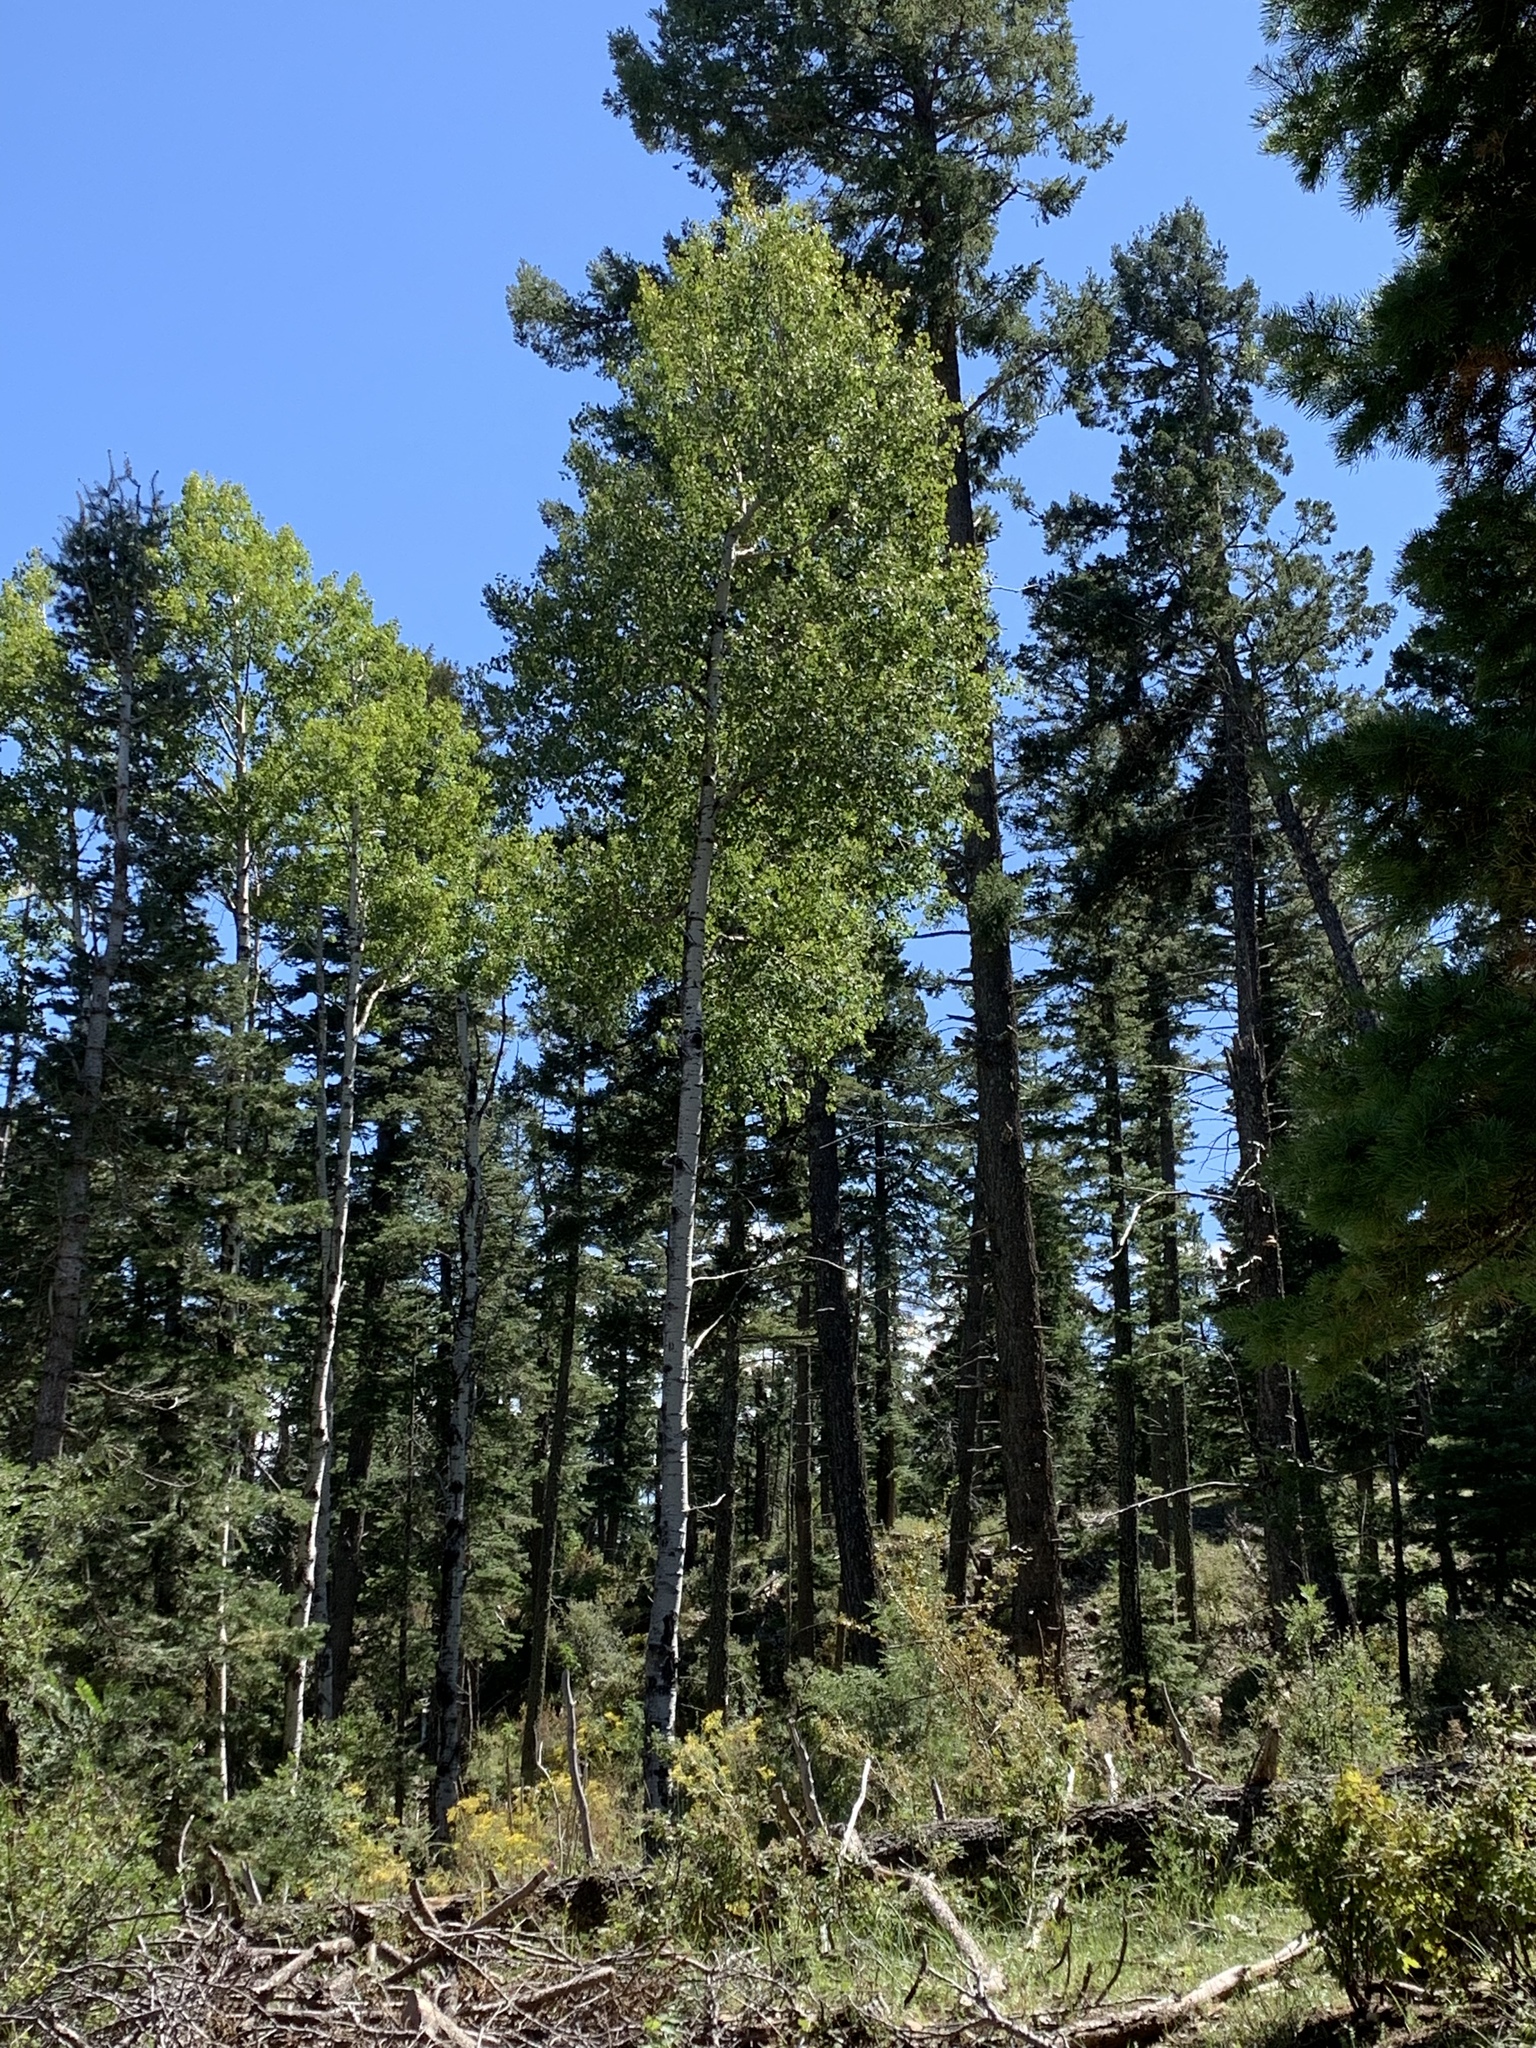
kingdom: Plantae
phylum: Tracheophyta
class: Pinopsida
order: Pinales
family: Pinaceae
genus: Pinus
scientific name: Pinus ponderosa
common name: Western yellow-pine
